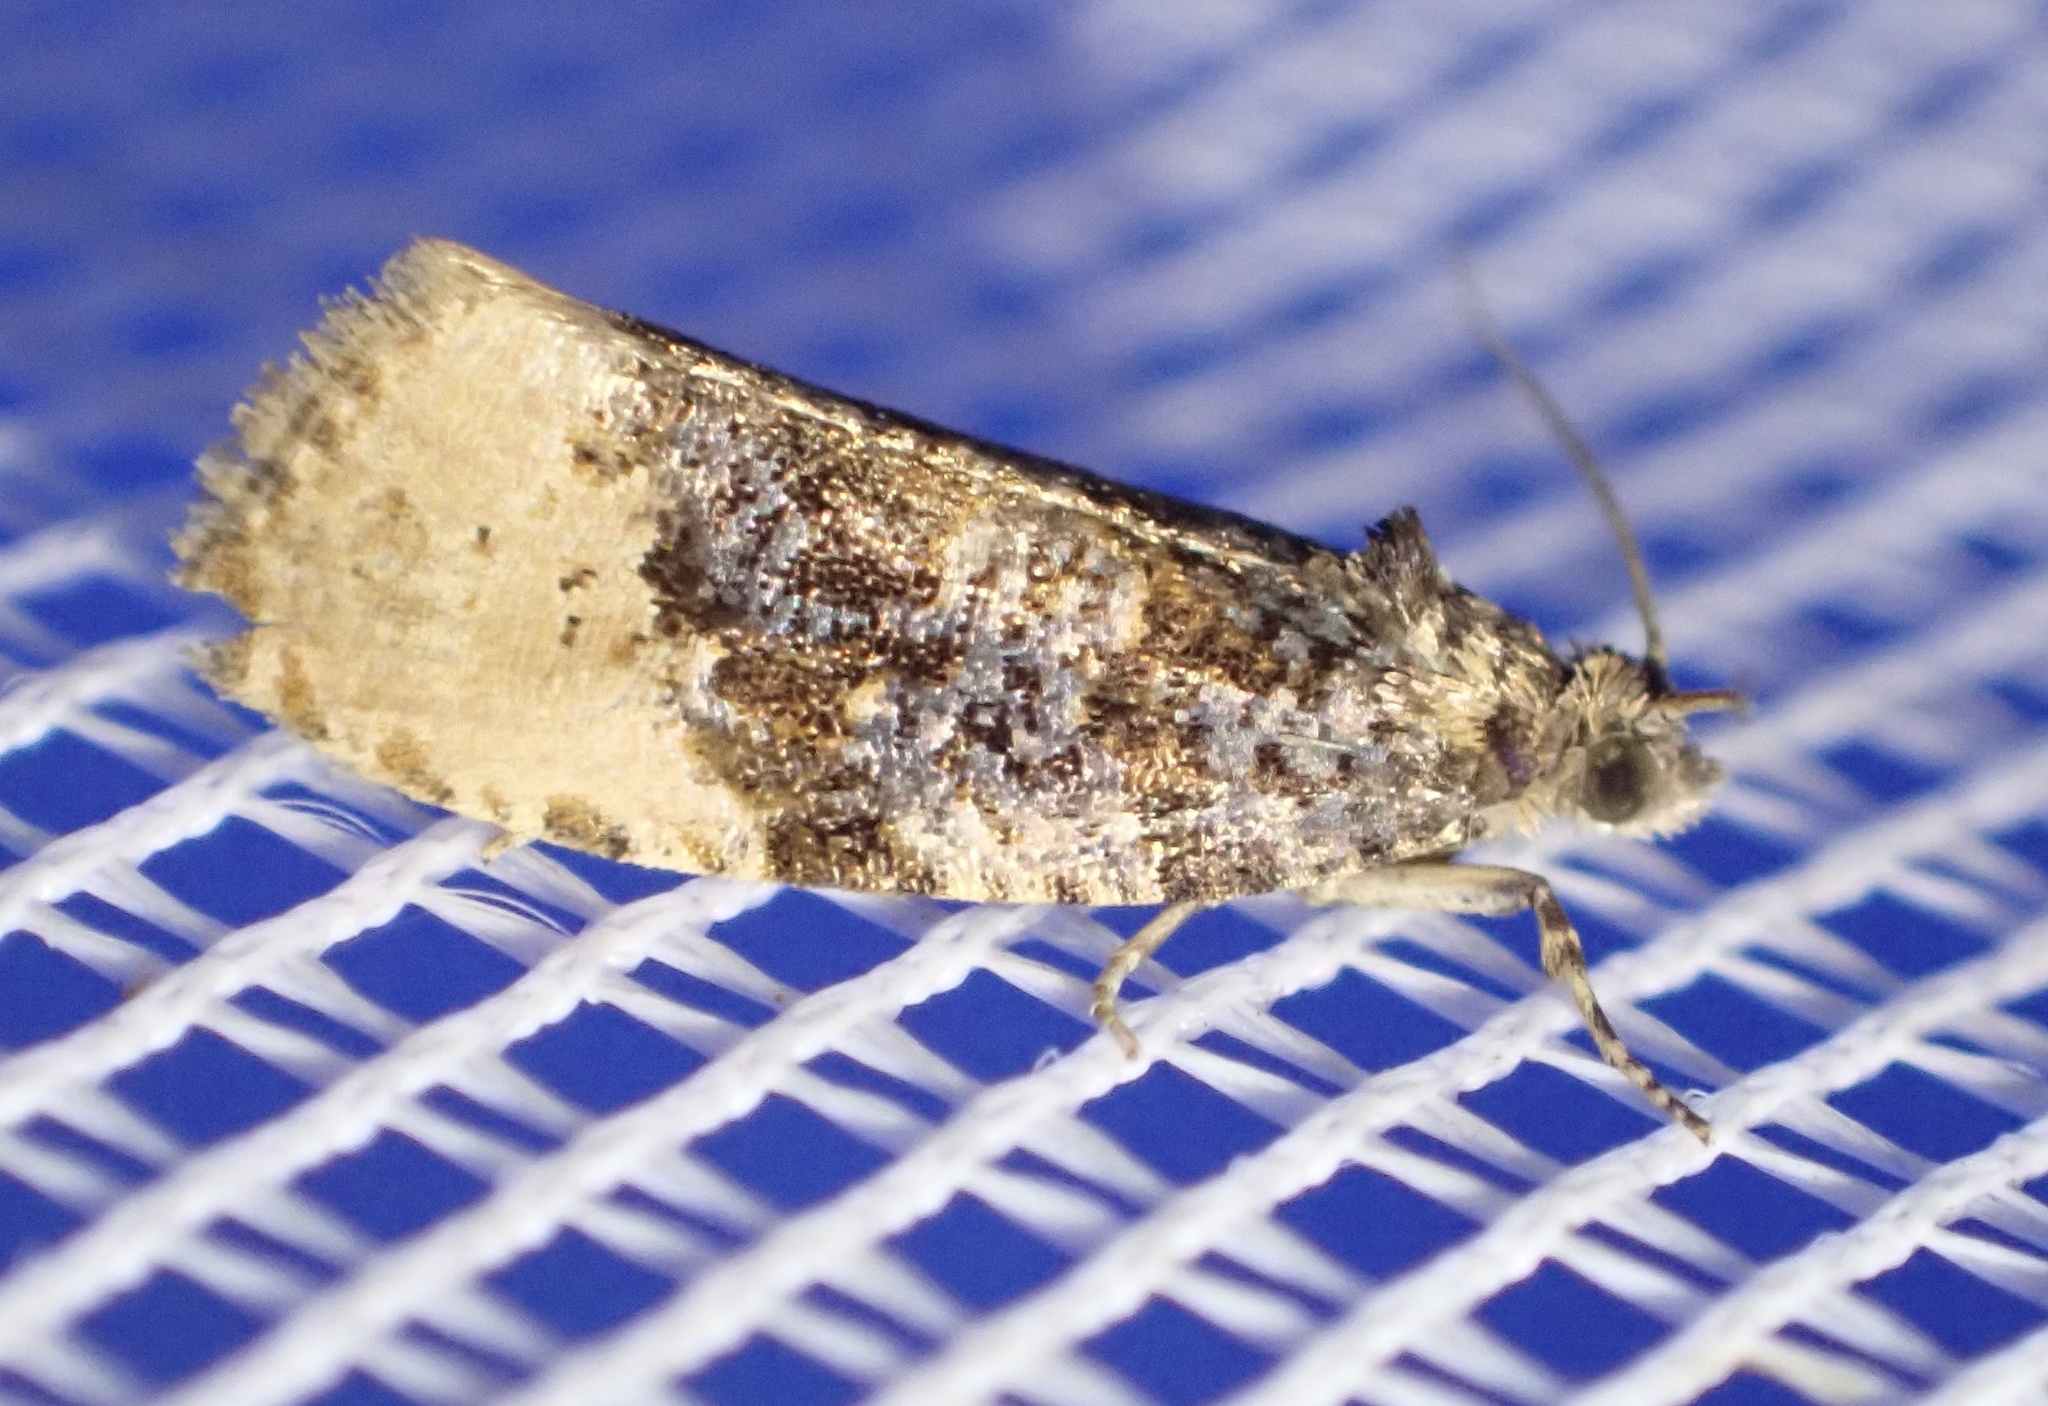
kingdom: Animalia
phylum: Arthropoda
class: Insecta
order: Lepidoptera
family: Tortricidae
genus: Hedya
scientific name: Hedya ochroleucana
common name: Buff-tipped marble
